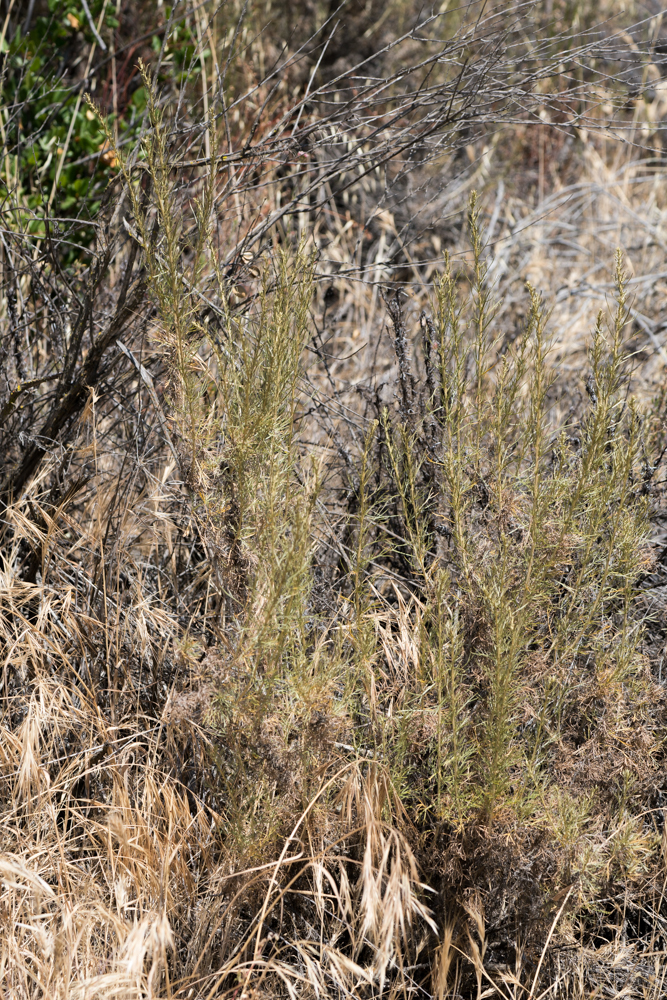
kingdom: Plantae
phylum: Tracheophyta
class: Magnoliopsida
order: Asterales
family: Asteraceae
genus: Artemisia
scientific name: Artemisia californica
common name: California sagebrush
